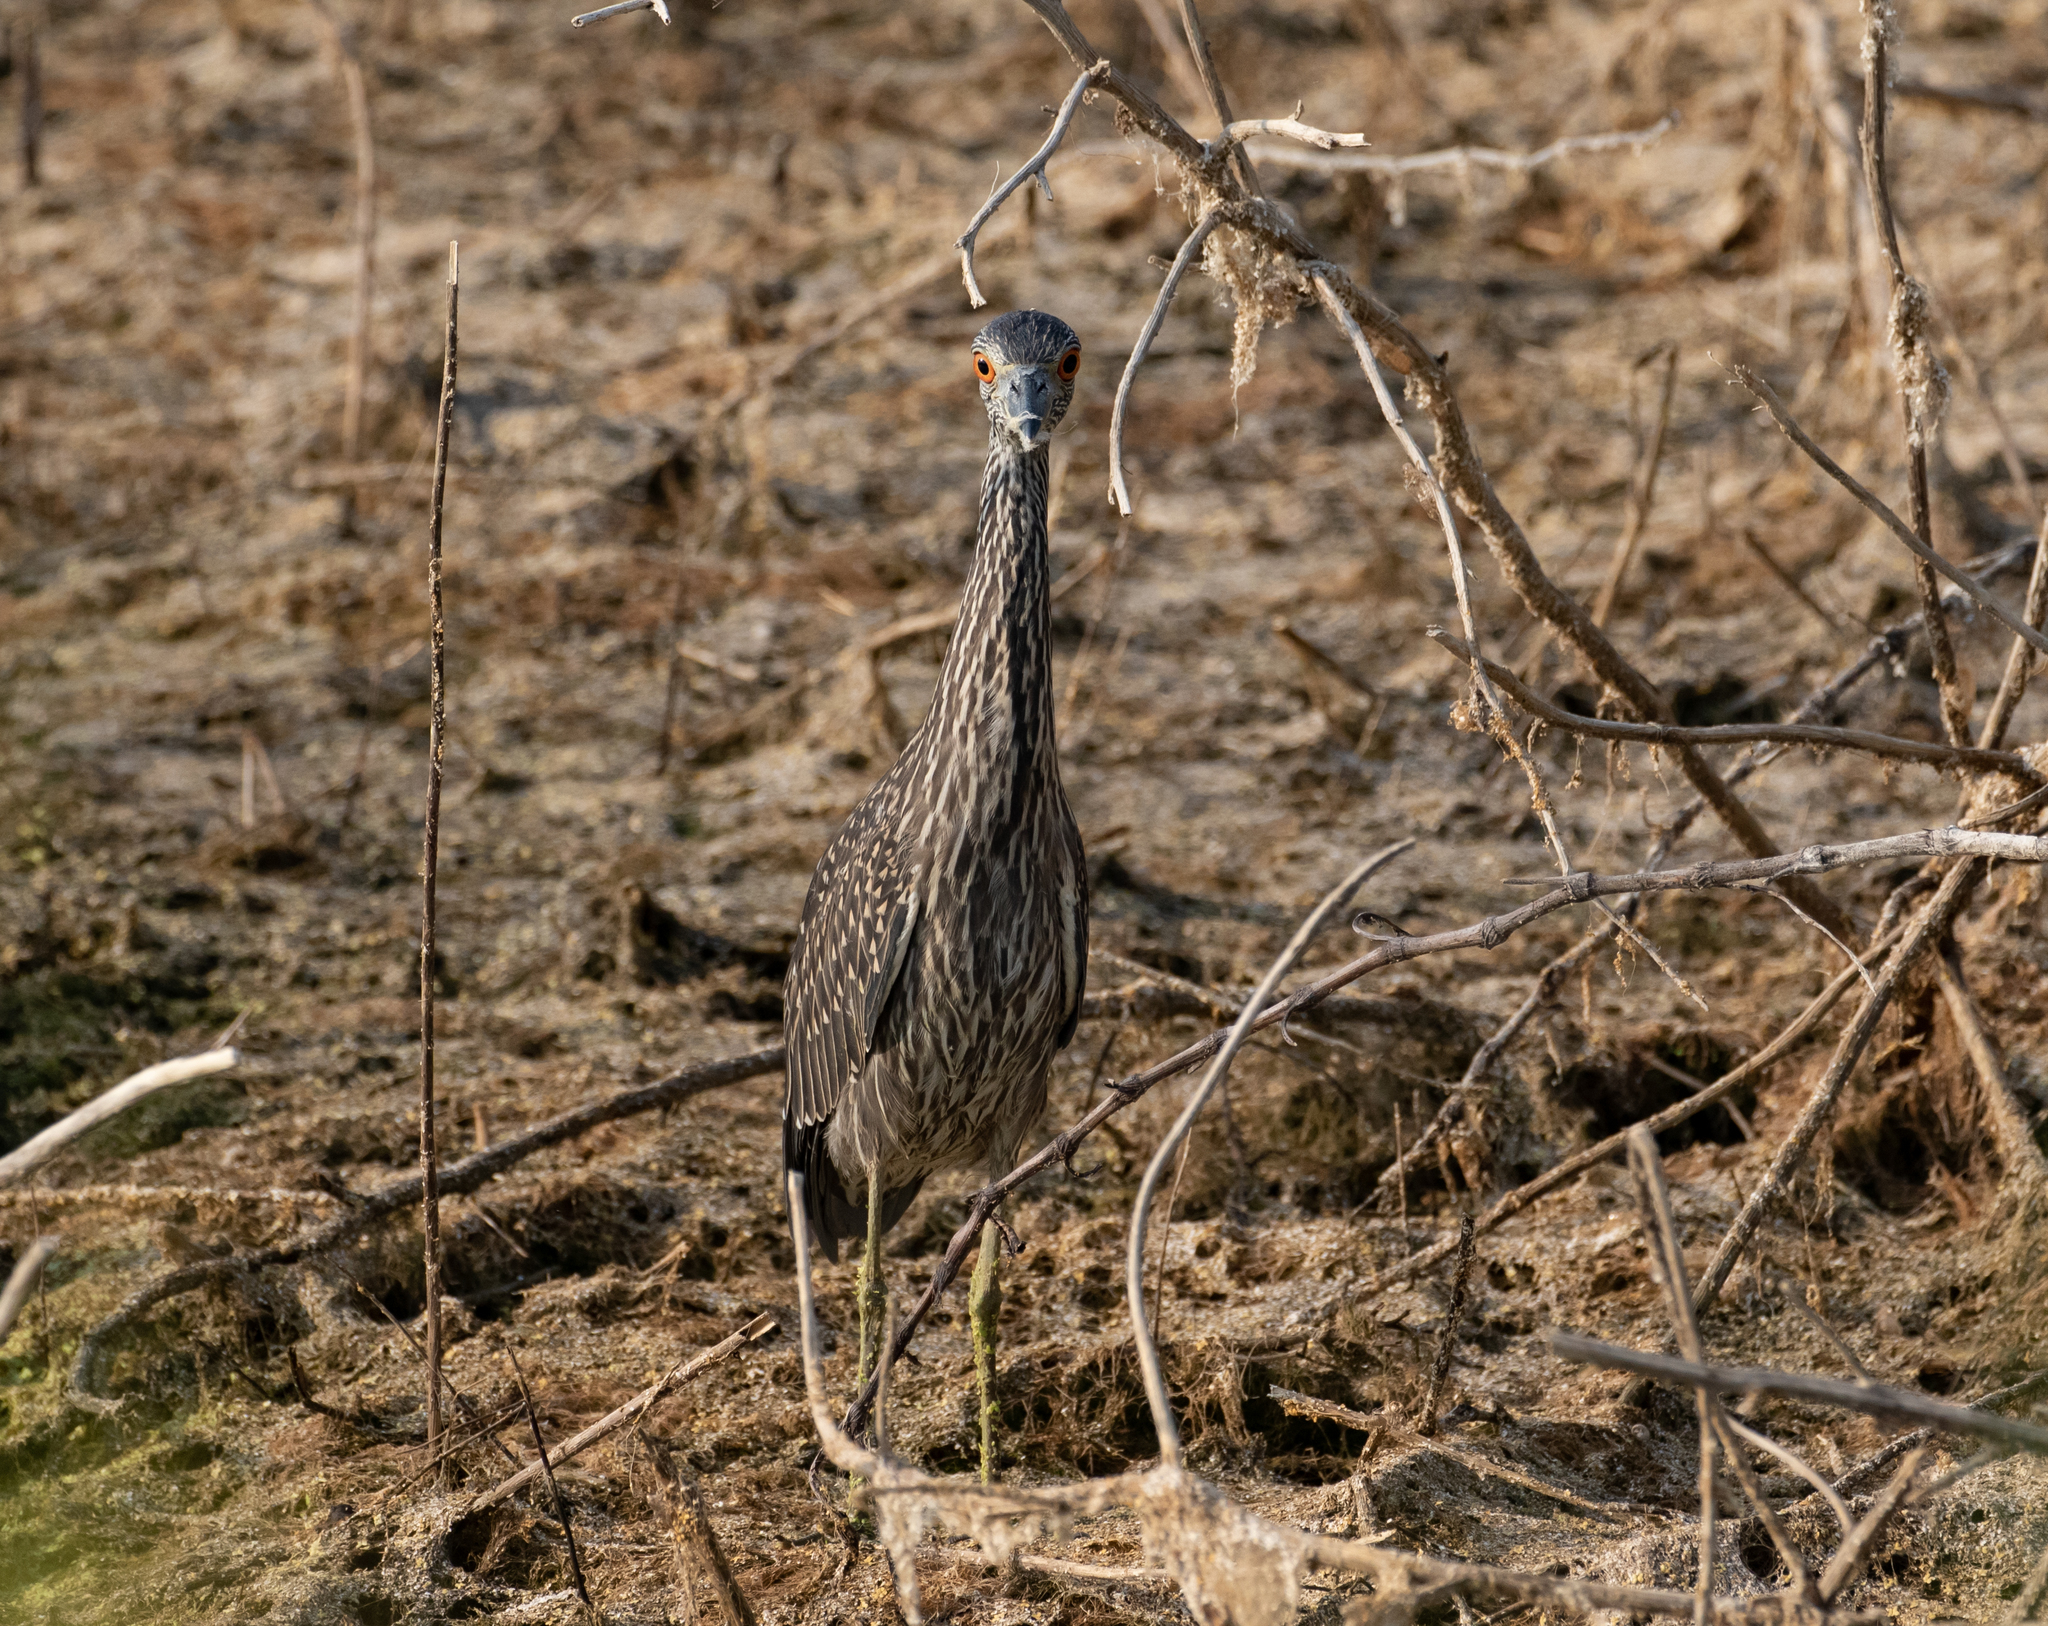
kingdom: Animalia
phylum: Chordata
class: Aves
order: Pelecaniformes
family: Ardeidae
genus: Nyctanassa
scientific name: Nyctanassa violacea
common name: Yellow-crowned night heron
